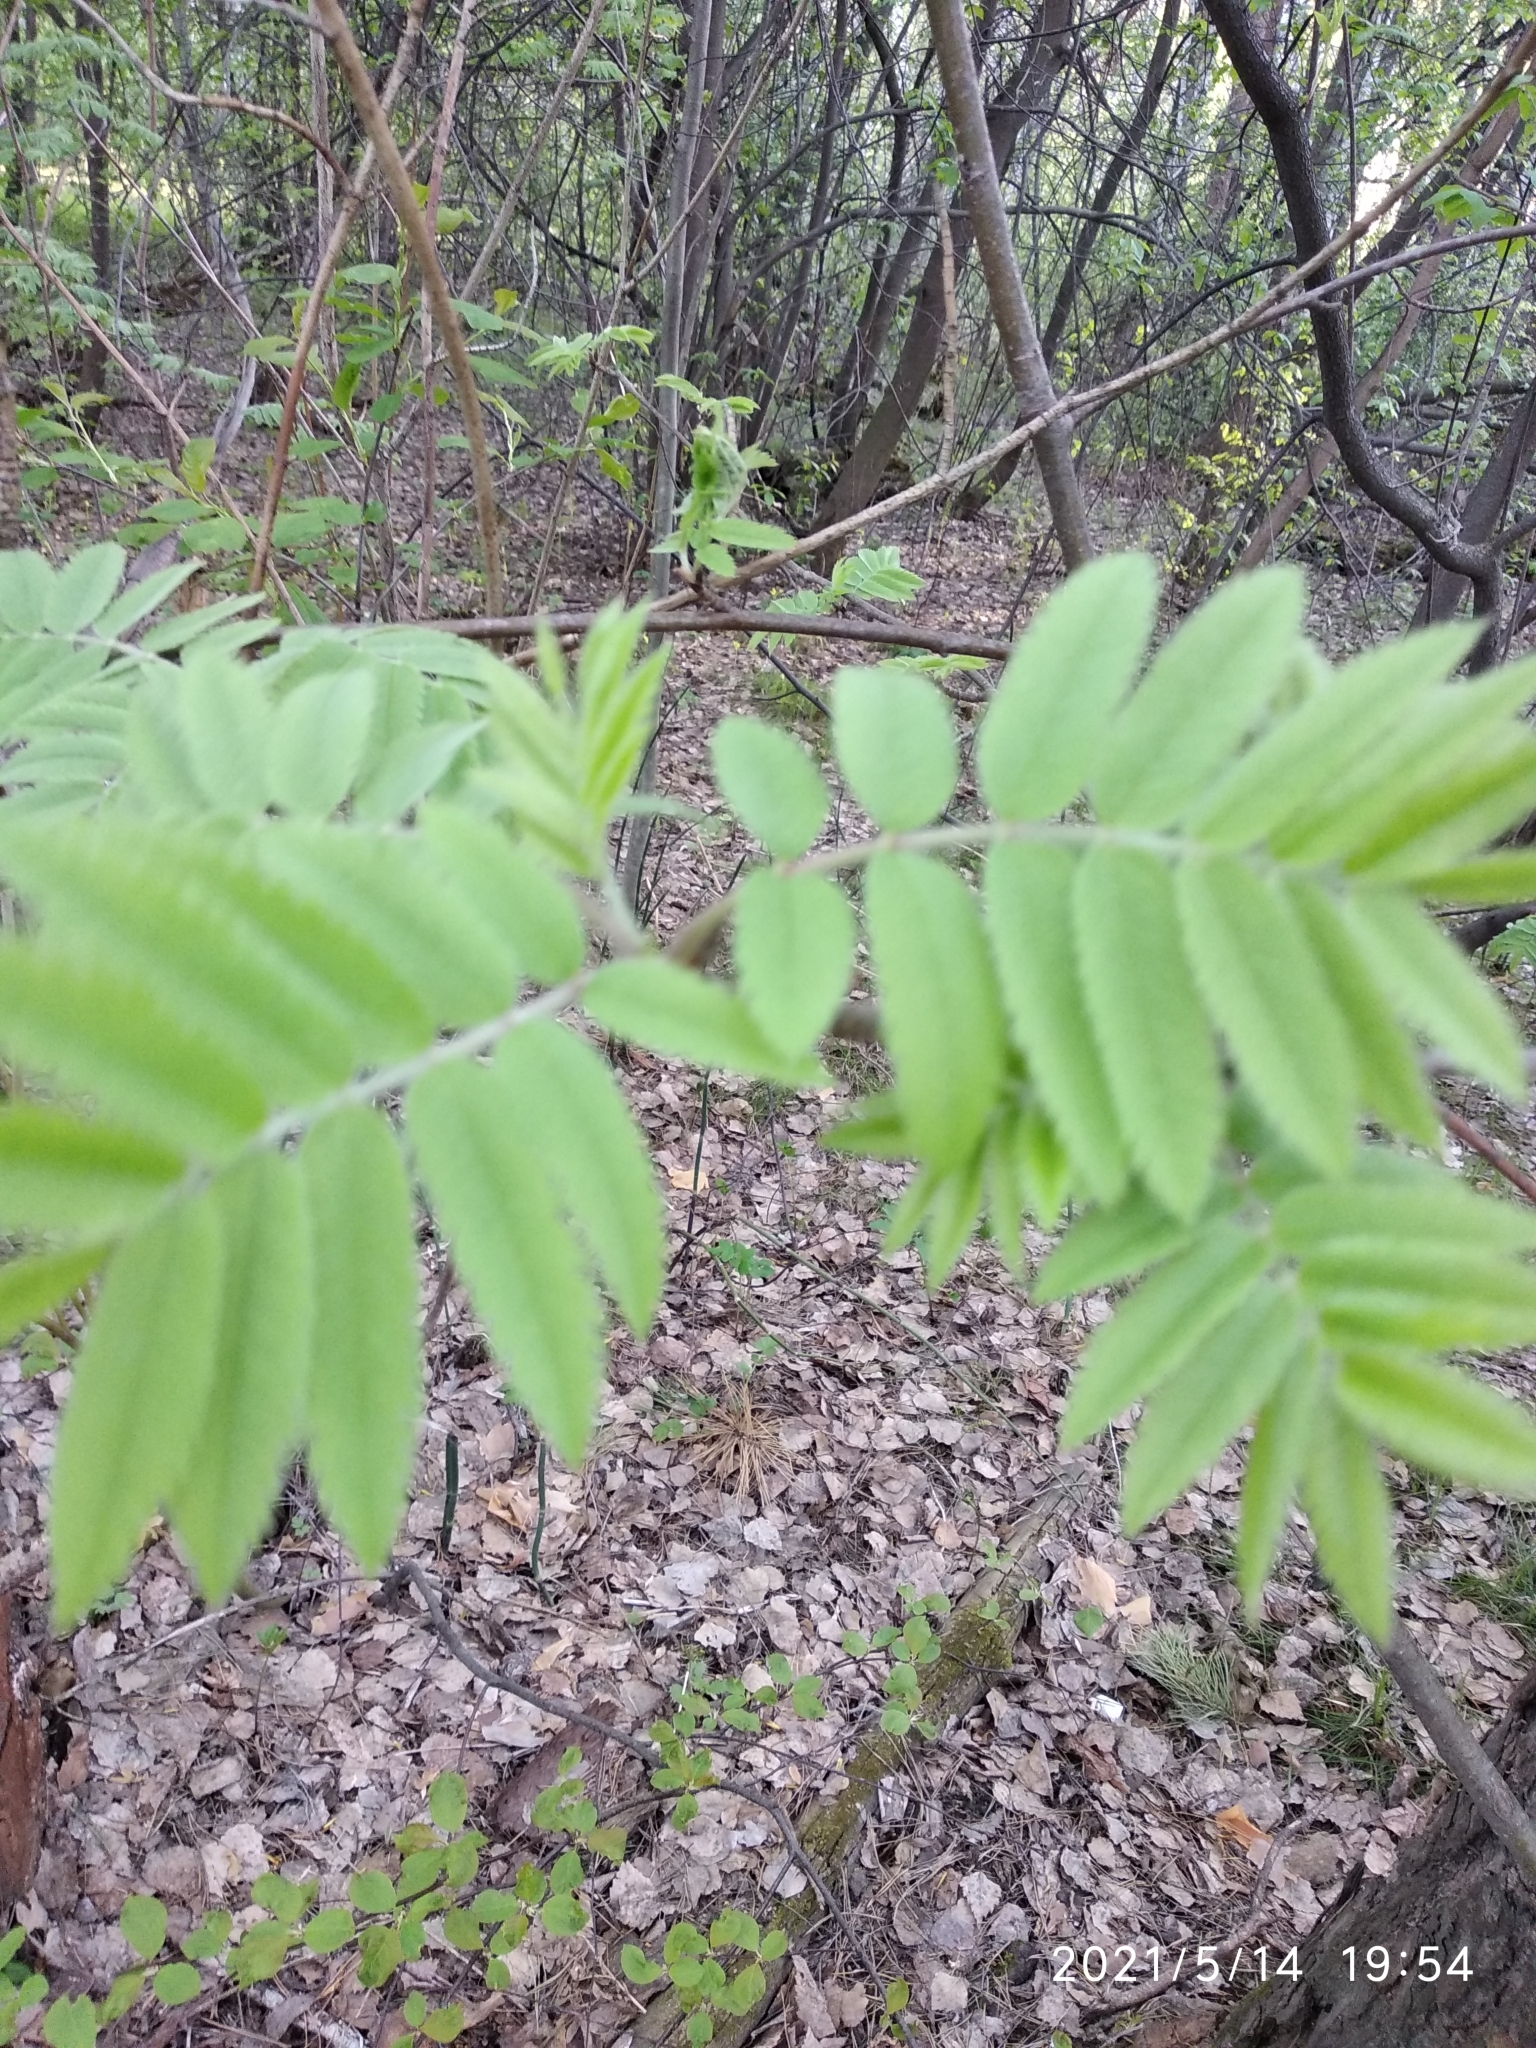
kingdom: Plantae
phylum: Tracheophyta
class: Magnoliopsida
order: Rosales
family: Rosaceae
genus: Sorbus
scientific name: Sorbus aucuparia
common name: Rowan
